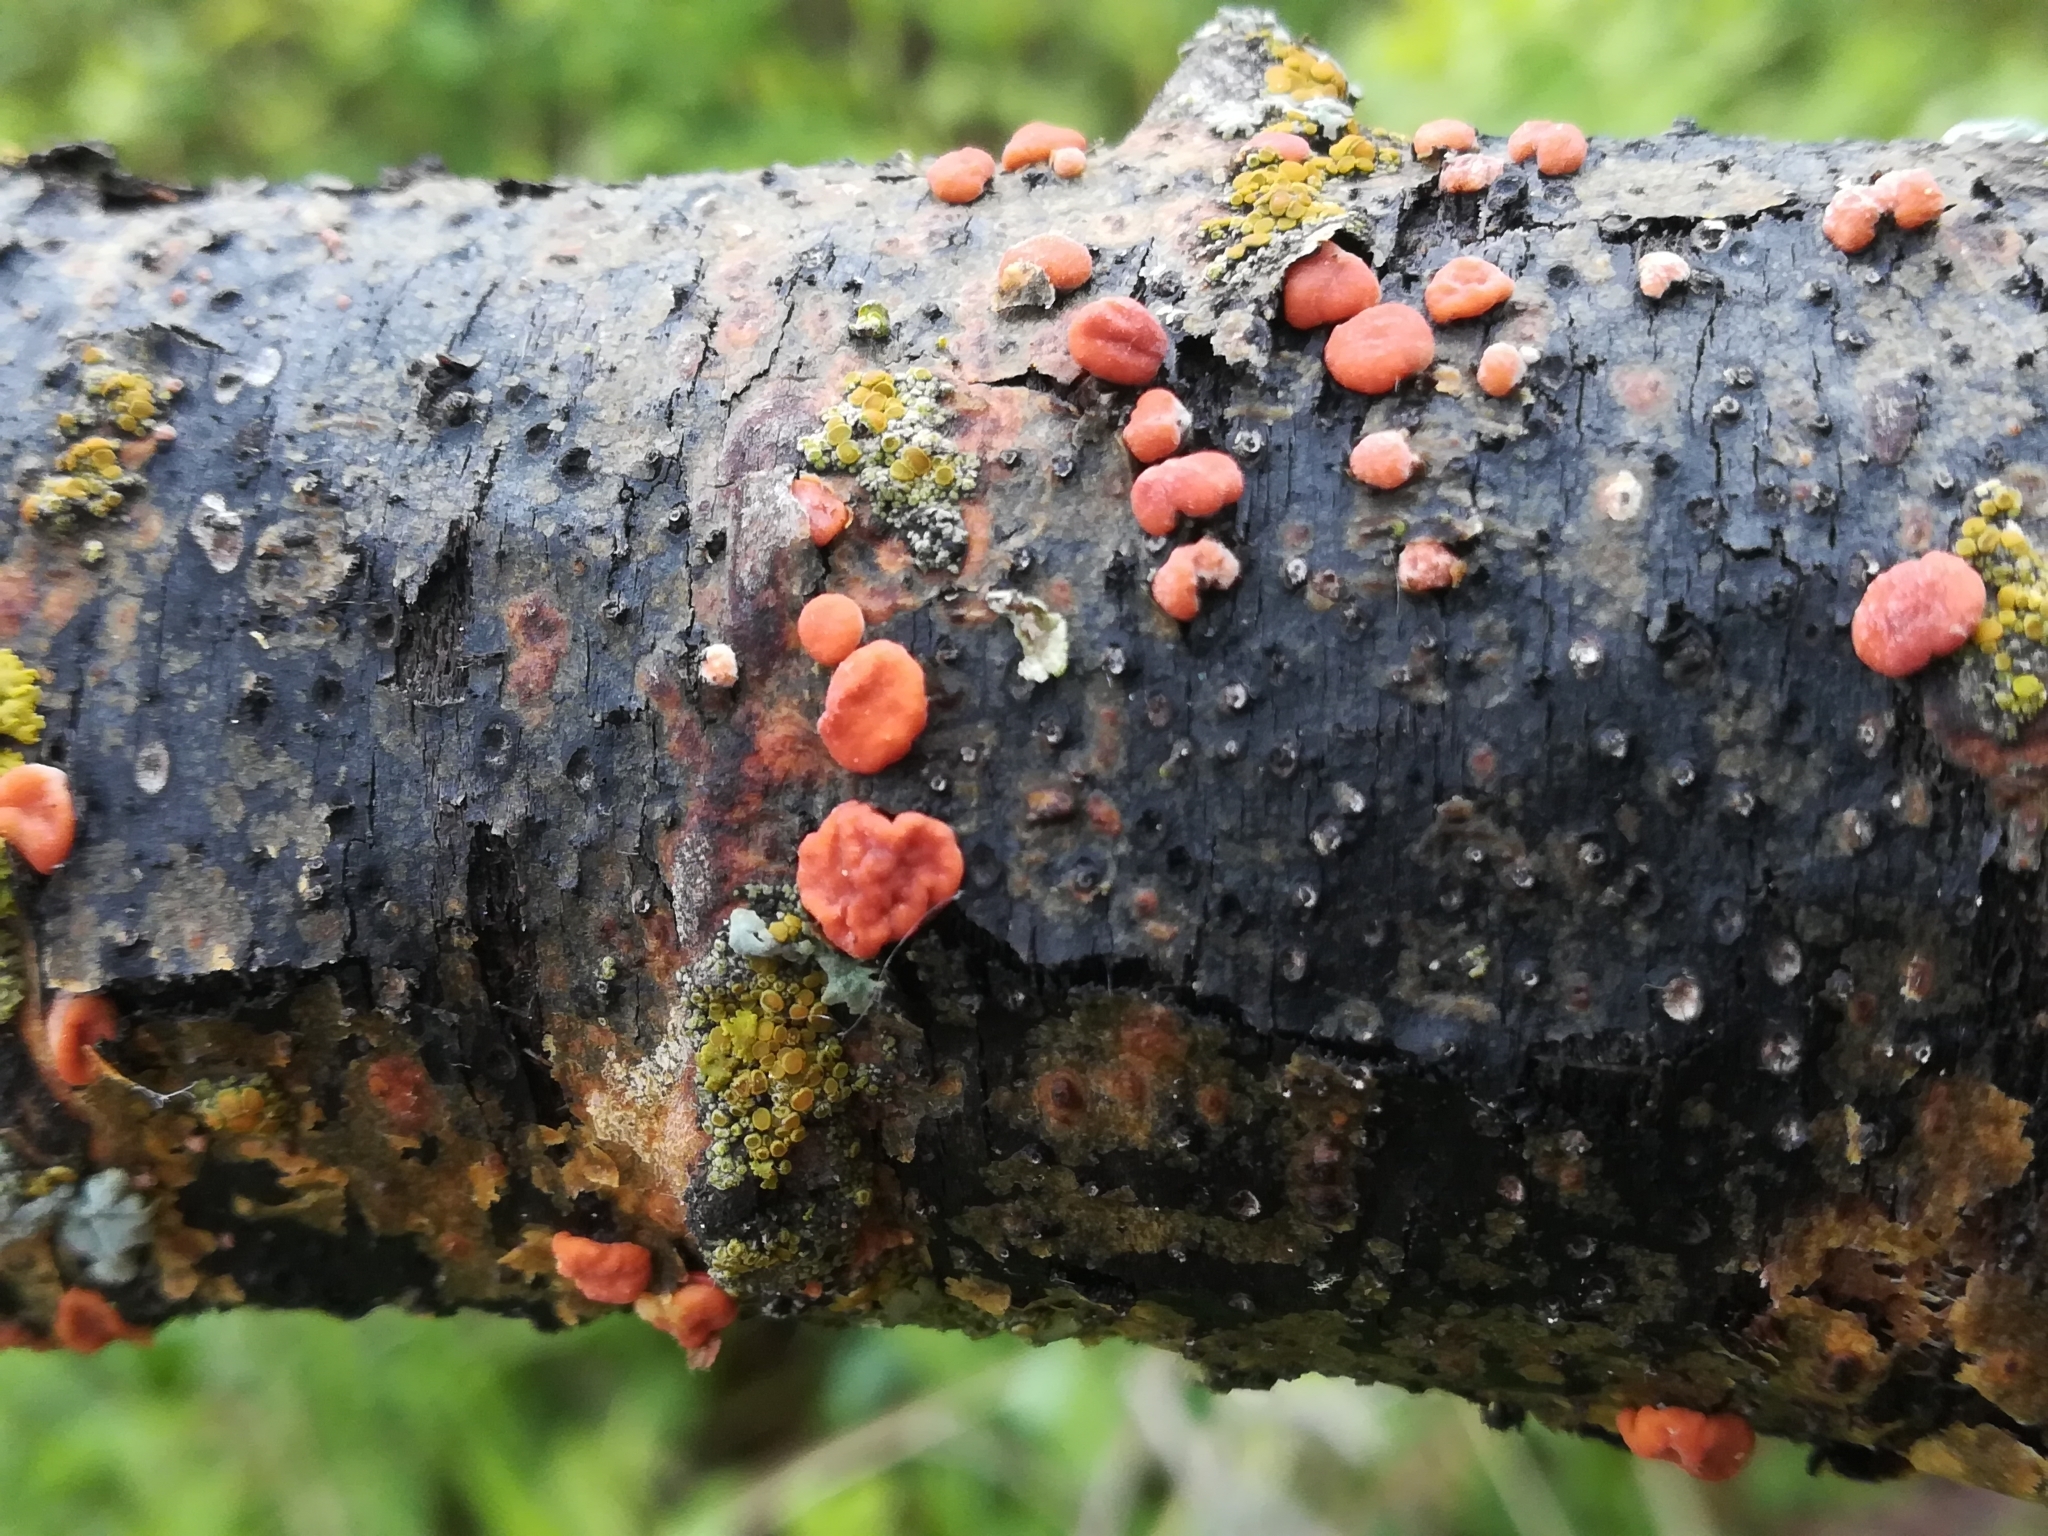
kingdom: Fungi
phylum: Basidiomycota
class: Agaricomycetes
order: Russulales
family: Peniophoraceae
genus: Peniophora
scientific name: Peniophora rufa
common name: Red tree brain fungus
